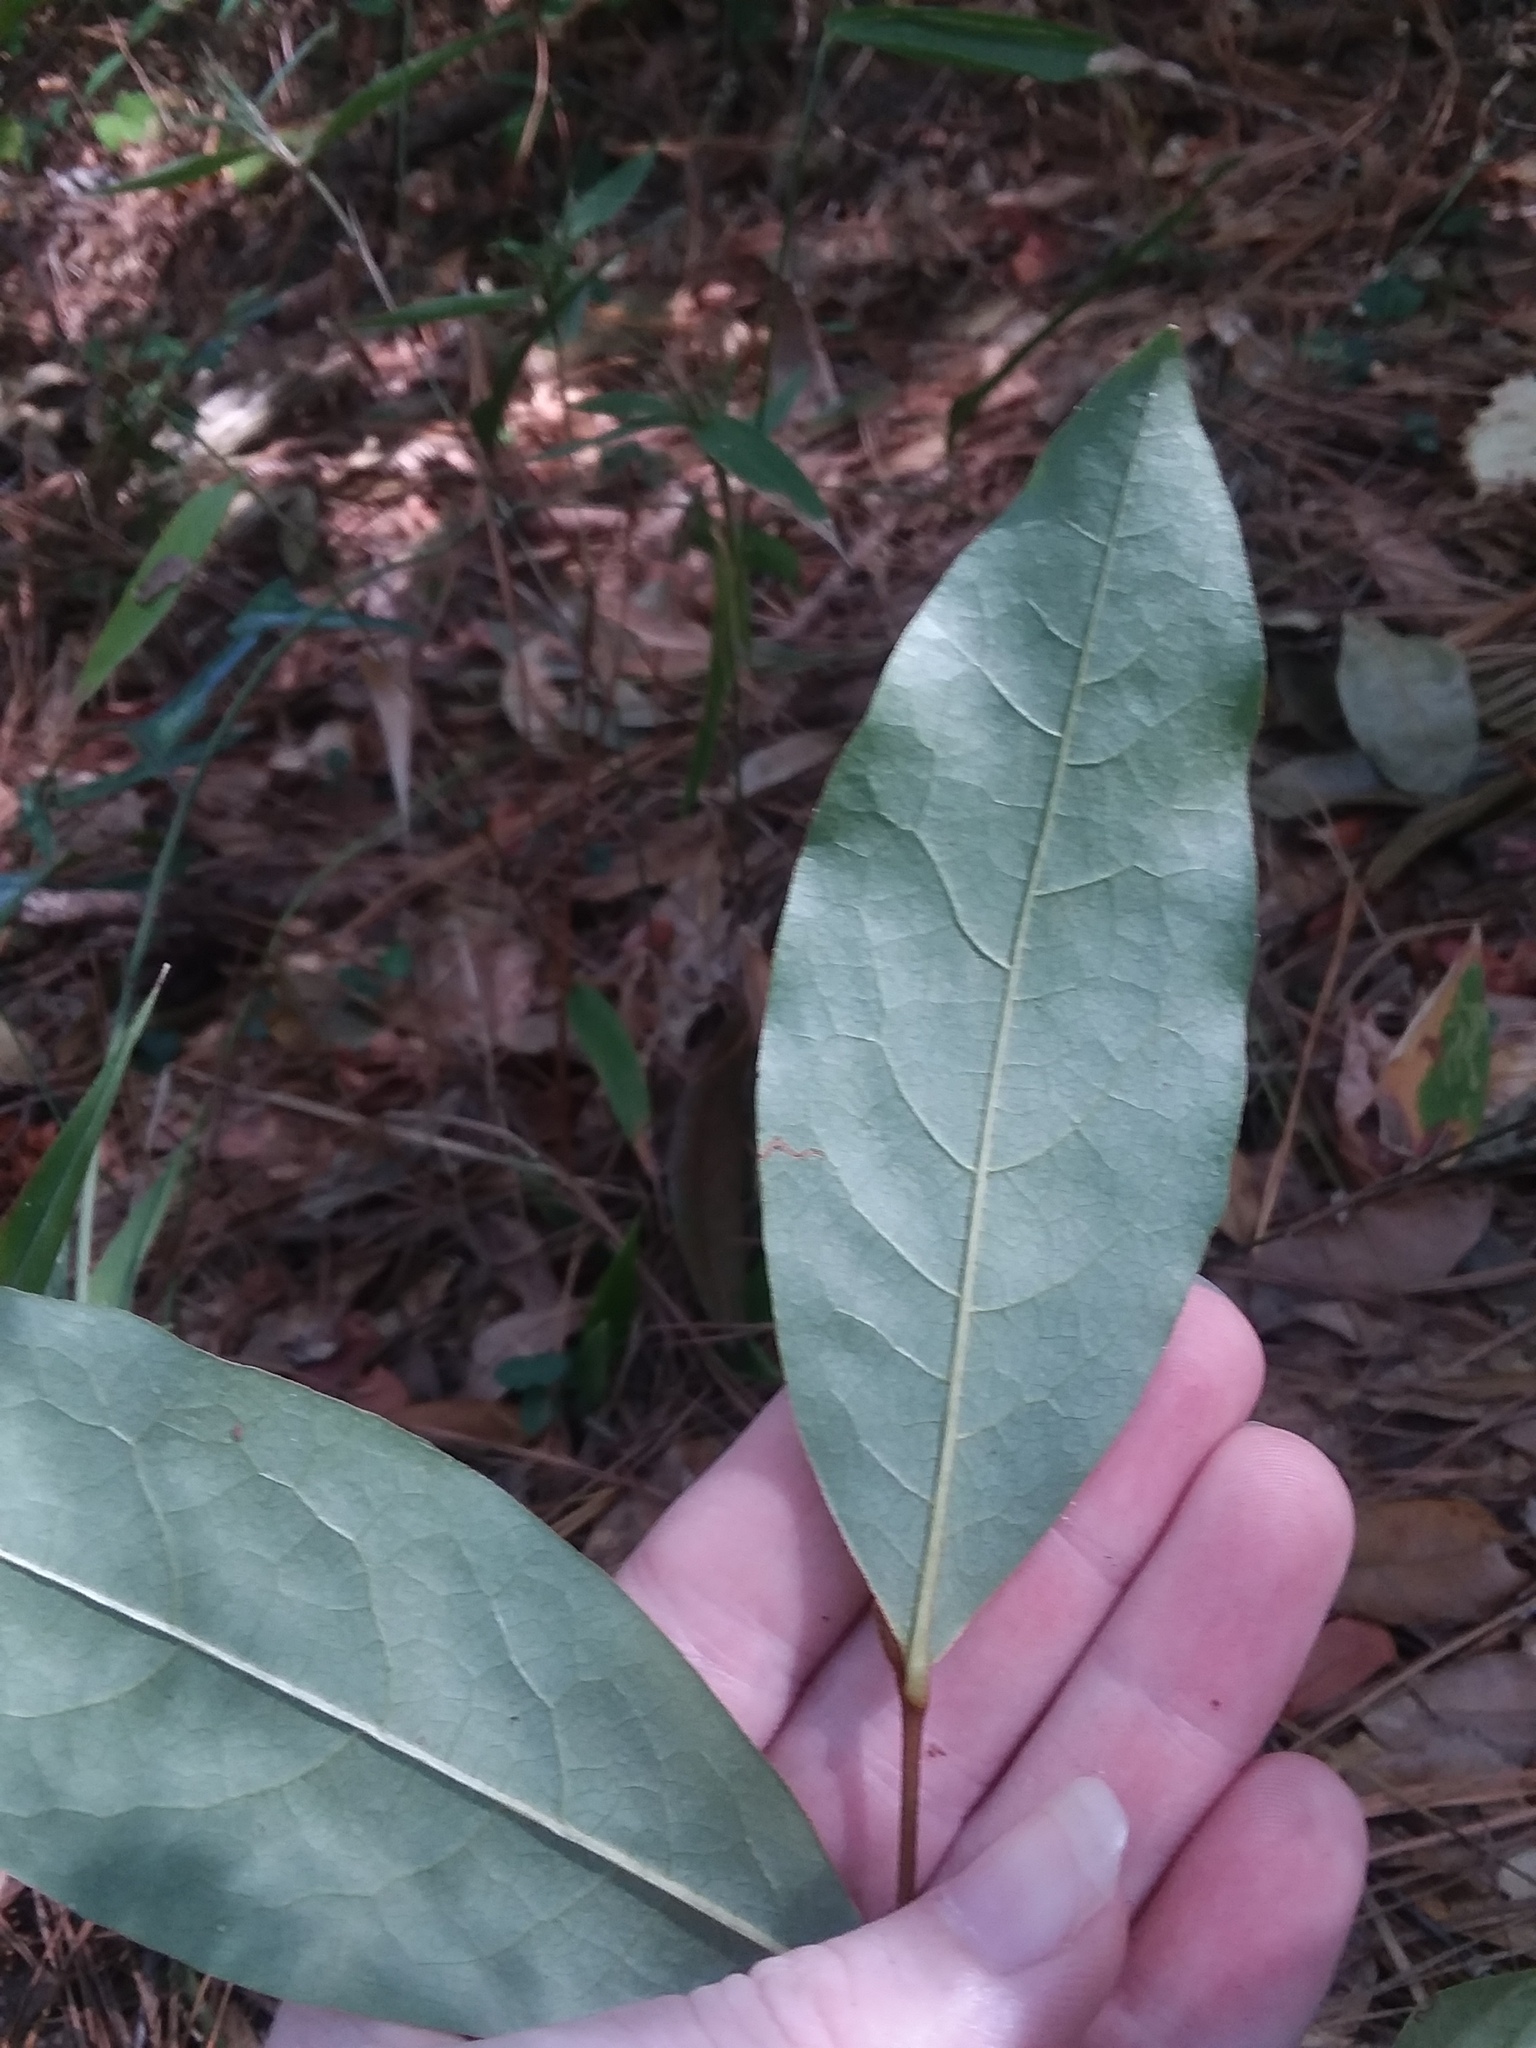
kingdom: Plantae
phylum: Tracheophyta
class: Magnoliopsida
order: Magnoliales
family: Annonaceae
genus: Asimina
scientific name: Asimina parviflora
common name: Dwarf pawpaw
